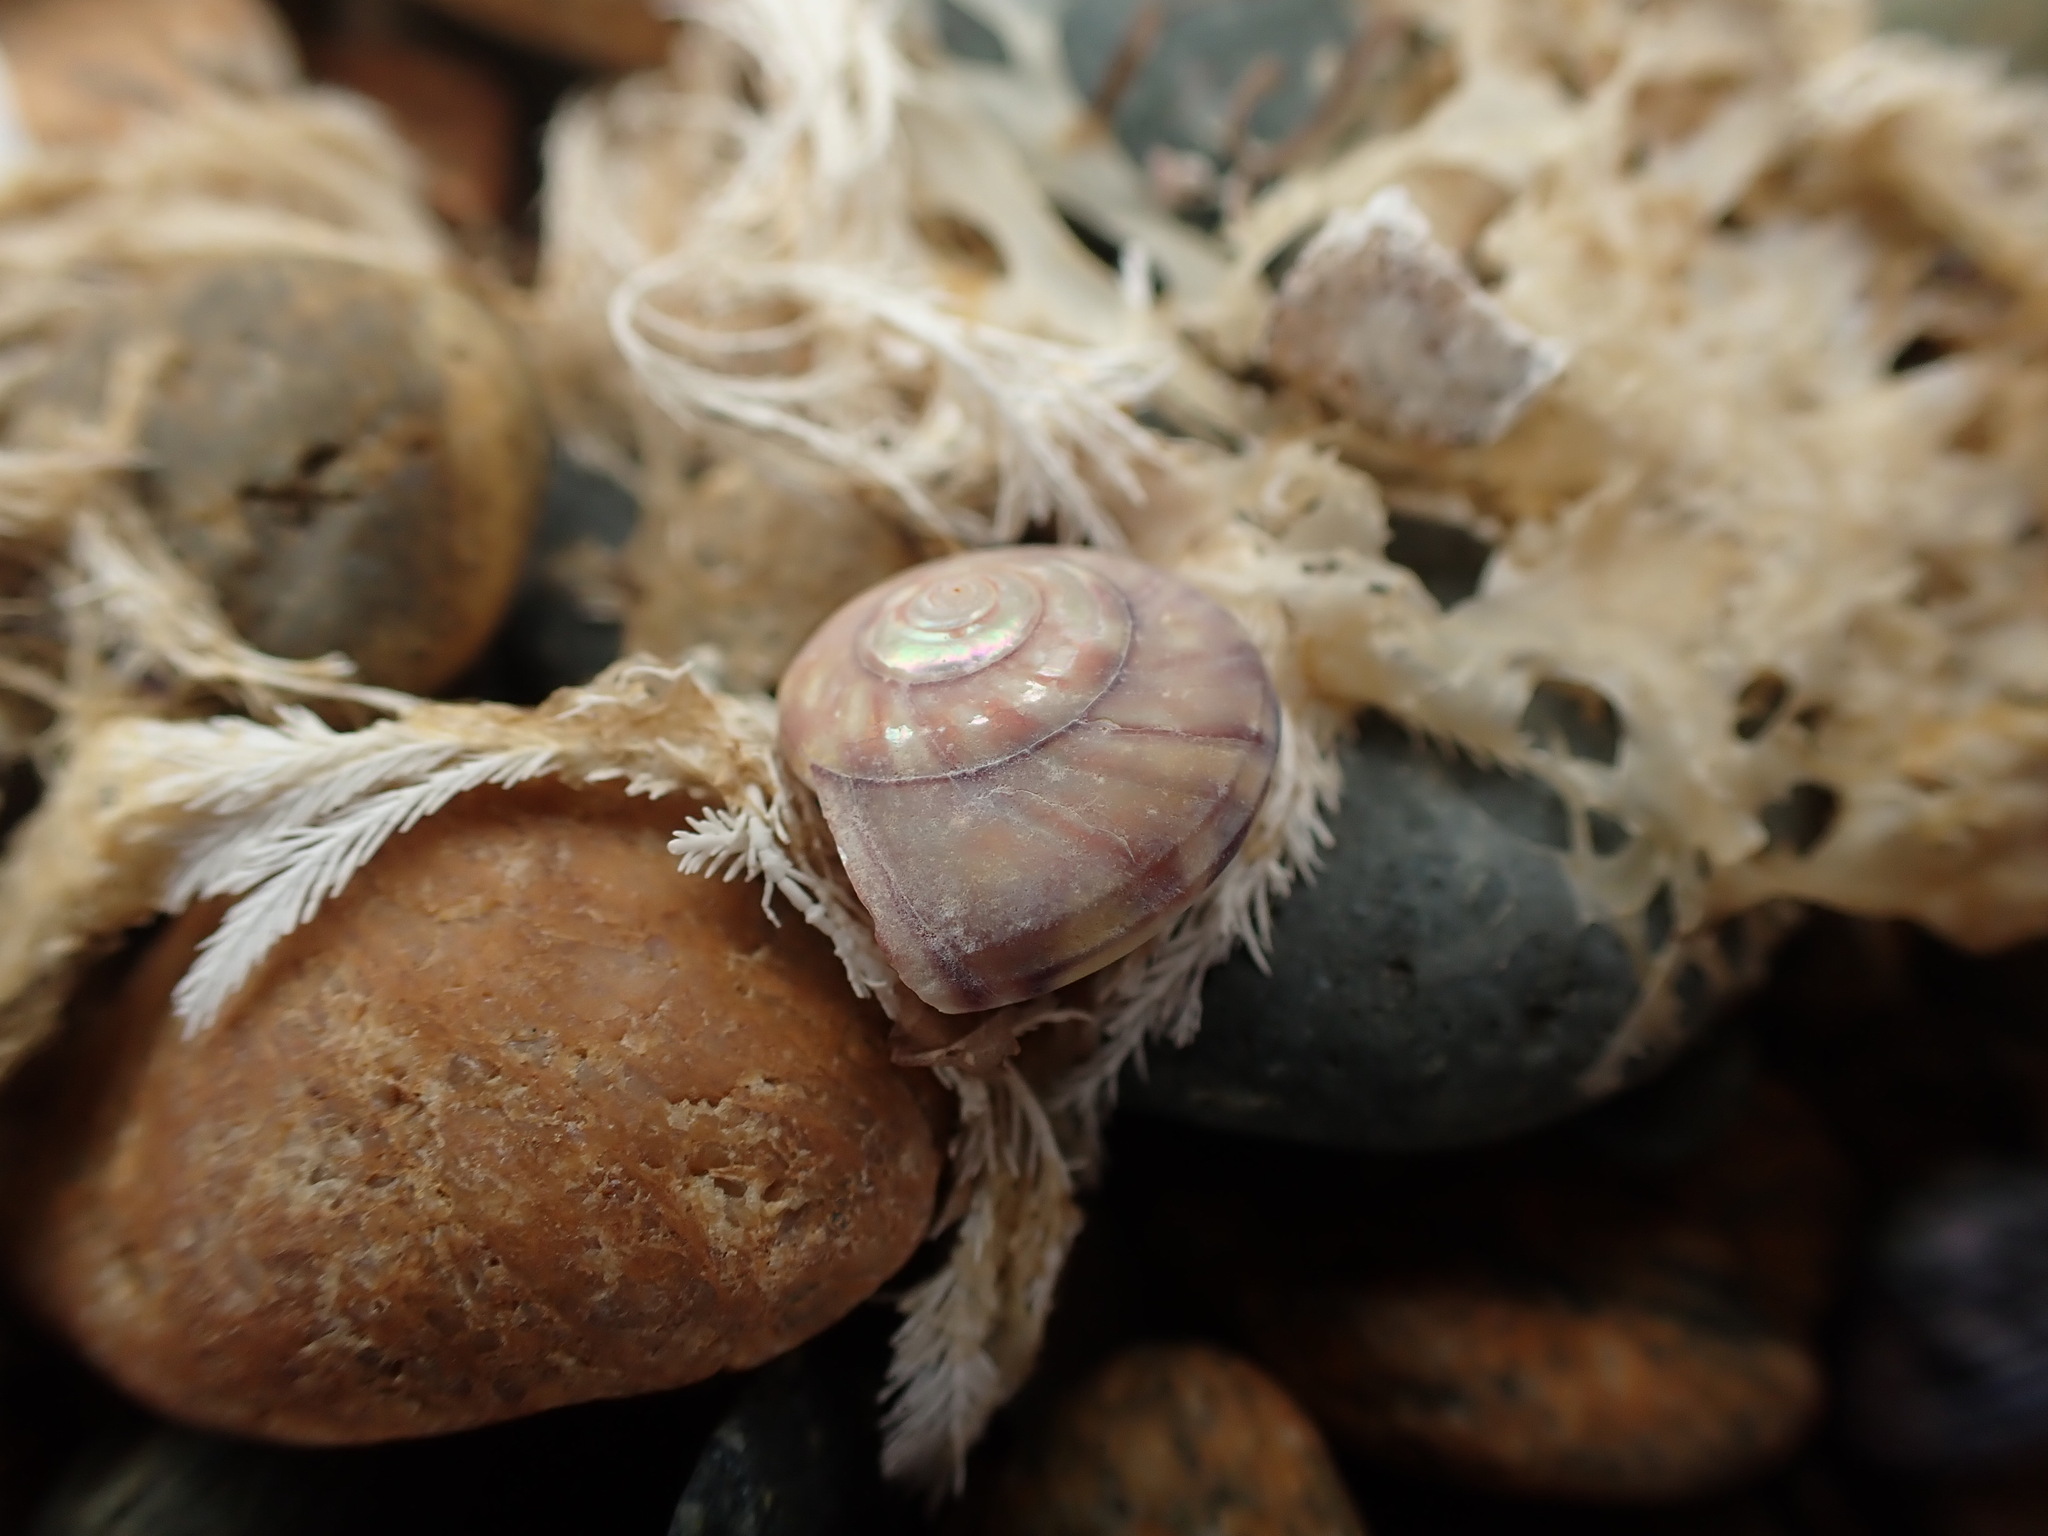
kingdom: Animalia
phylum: Mollusca
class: Gastropoda
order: Trochida
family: Trochidae
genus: Zethalia
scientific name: Zethalia zelandica
